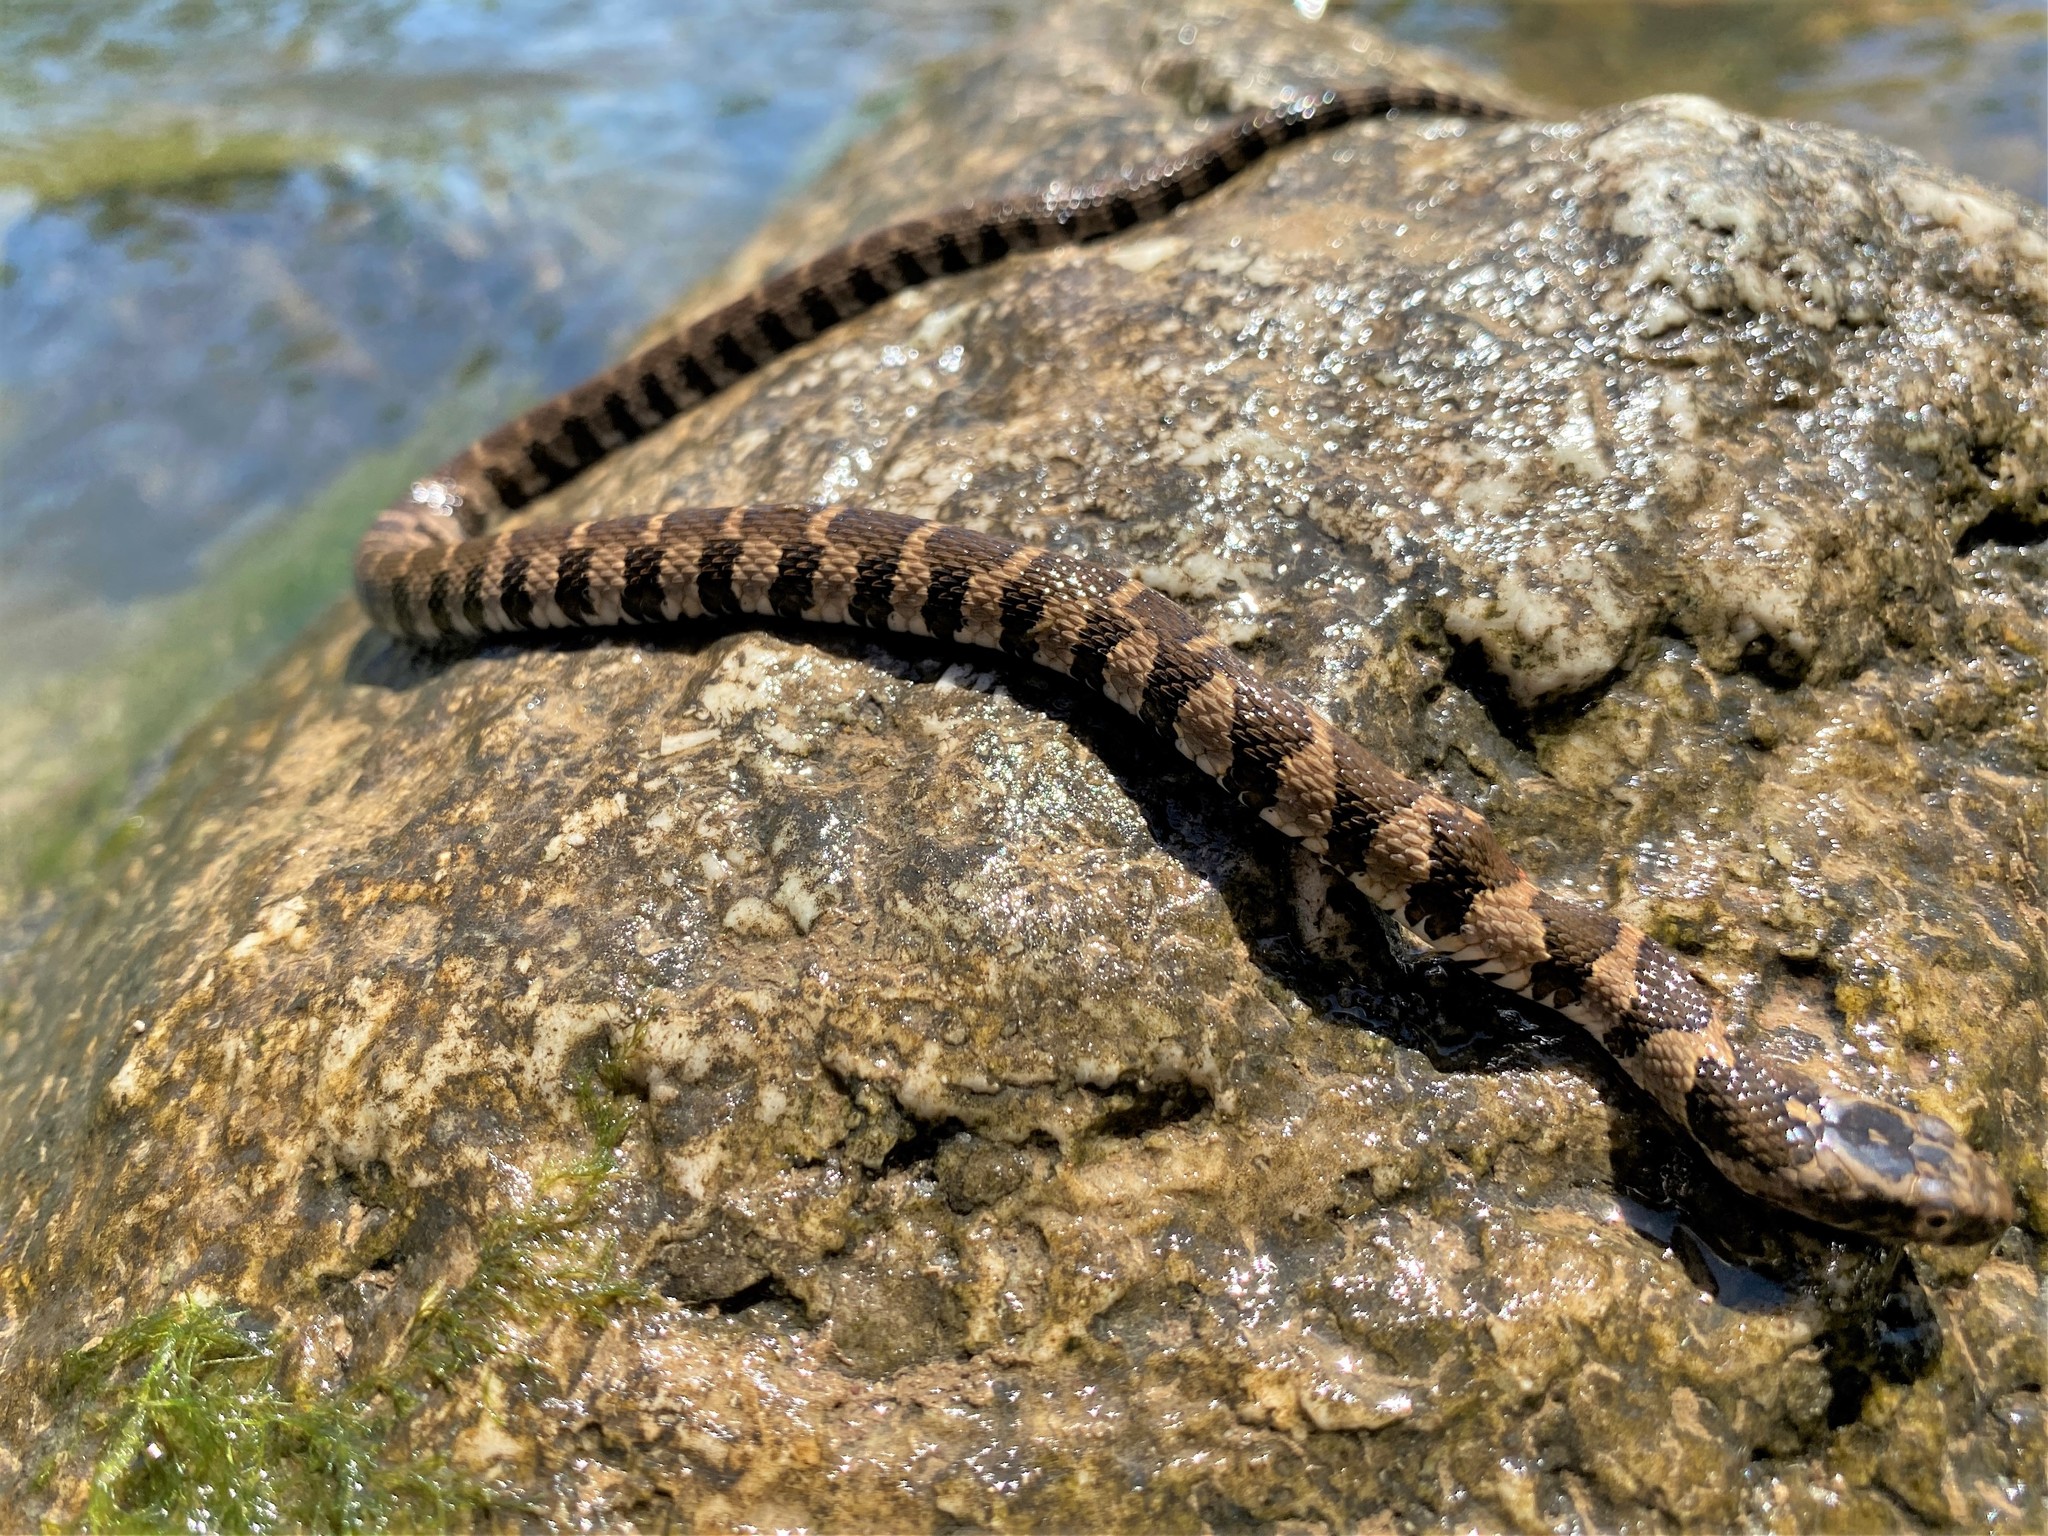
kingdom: Animalia
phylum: Chordata
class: Squamata
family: Colubridae
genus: Nerodia
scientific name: Nerodia sipedon
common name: Northern water snake
